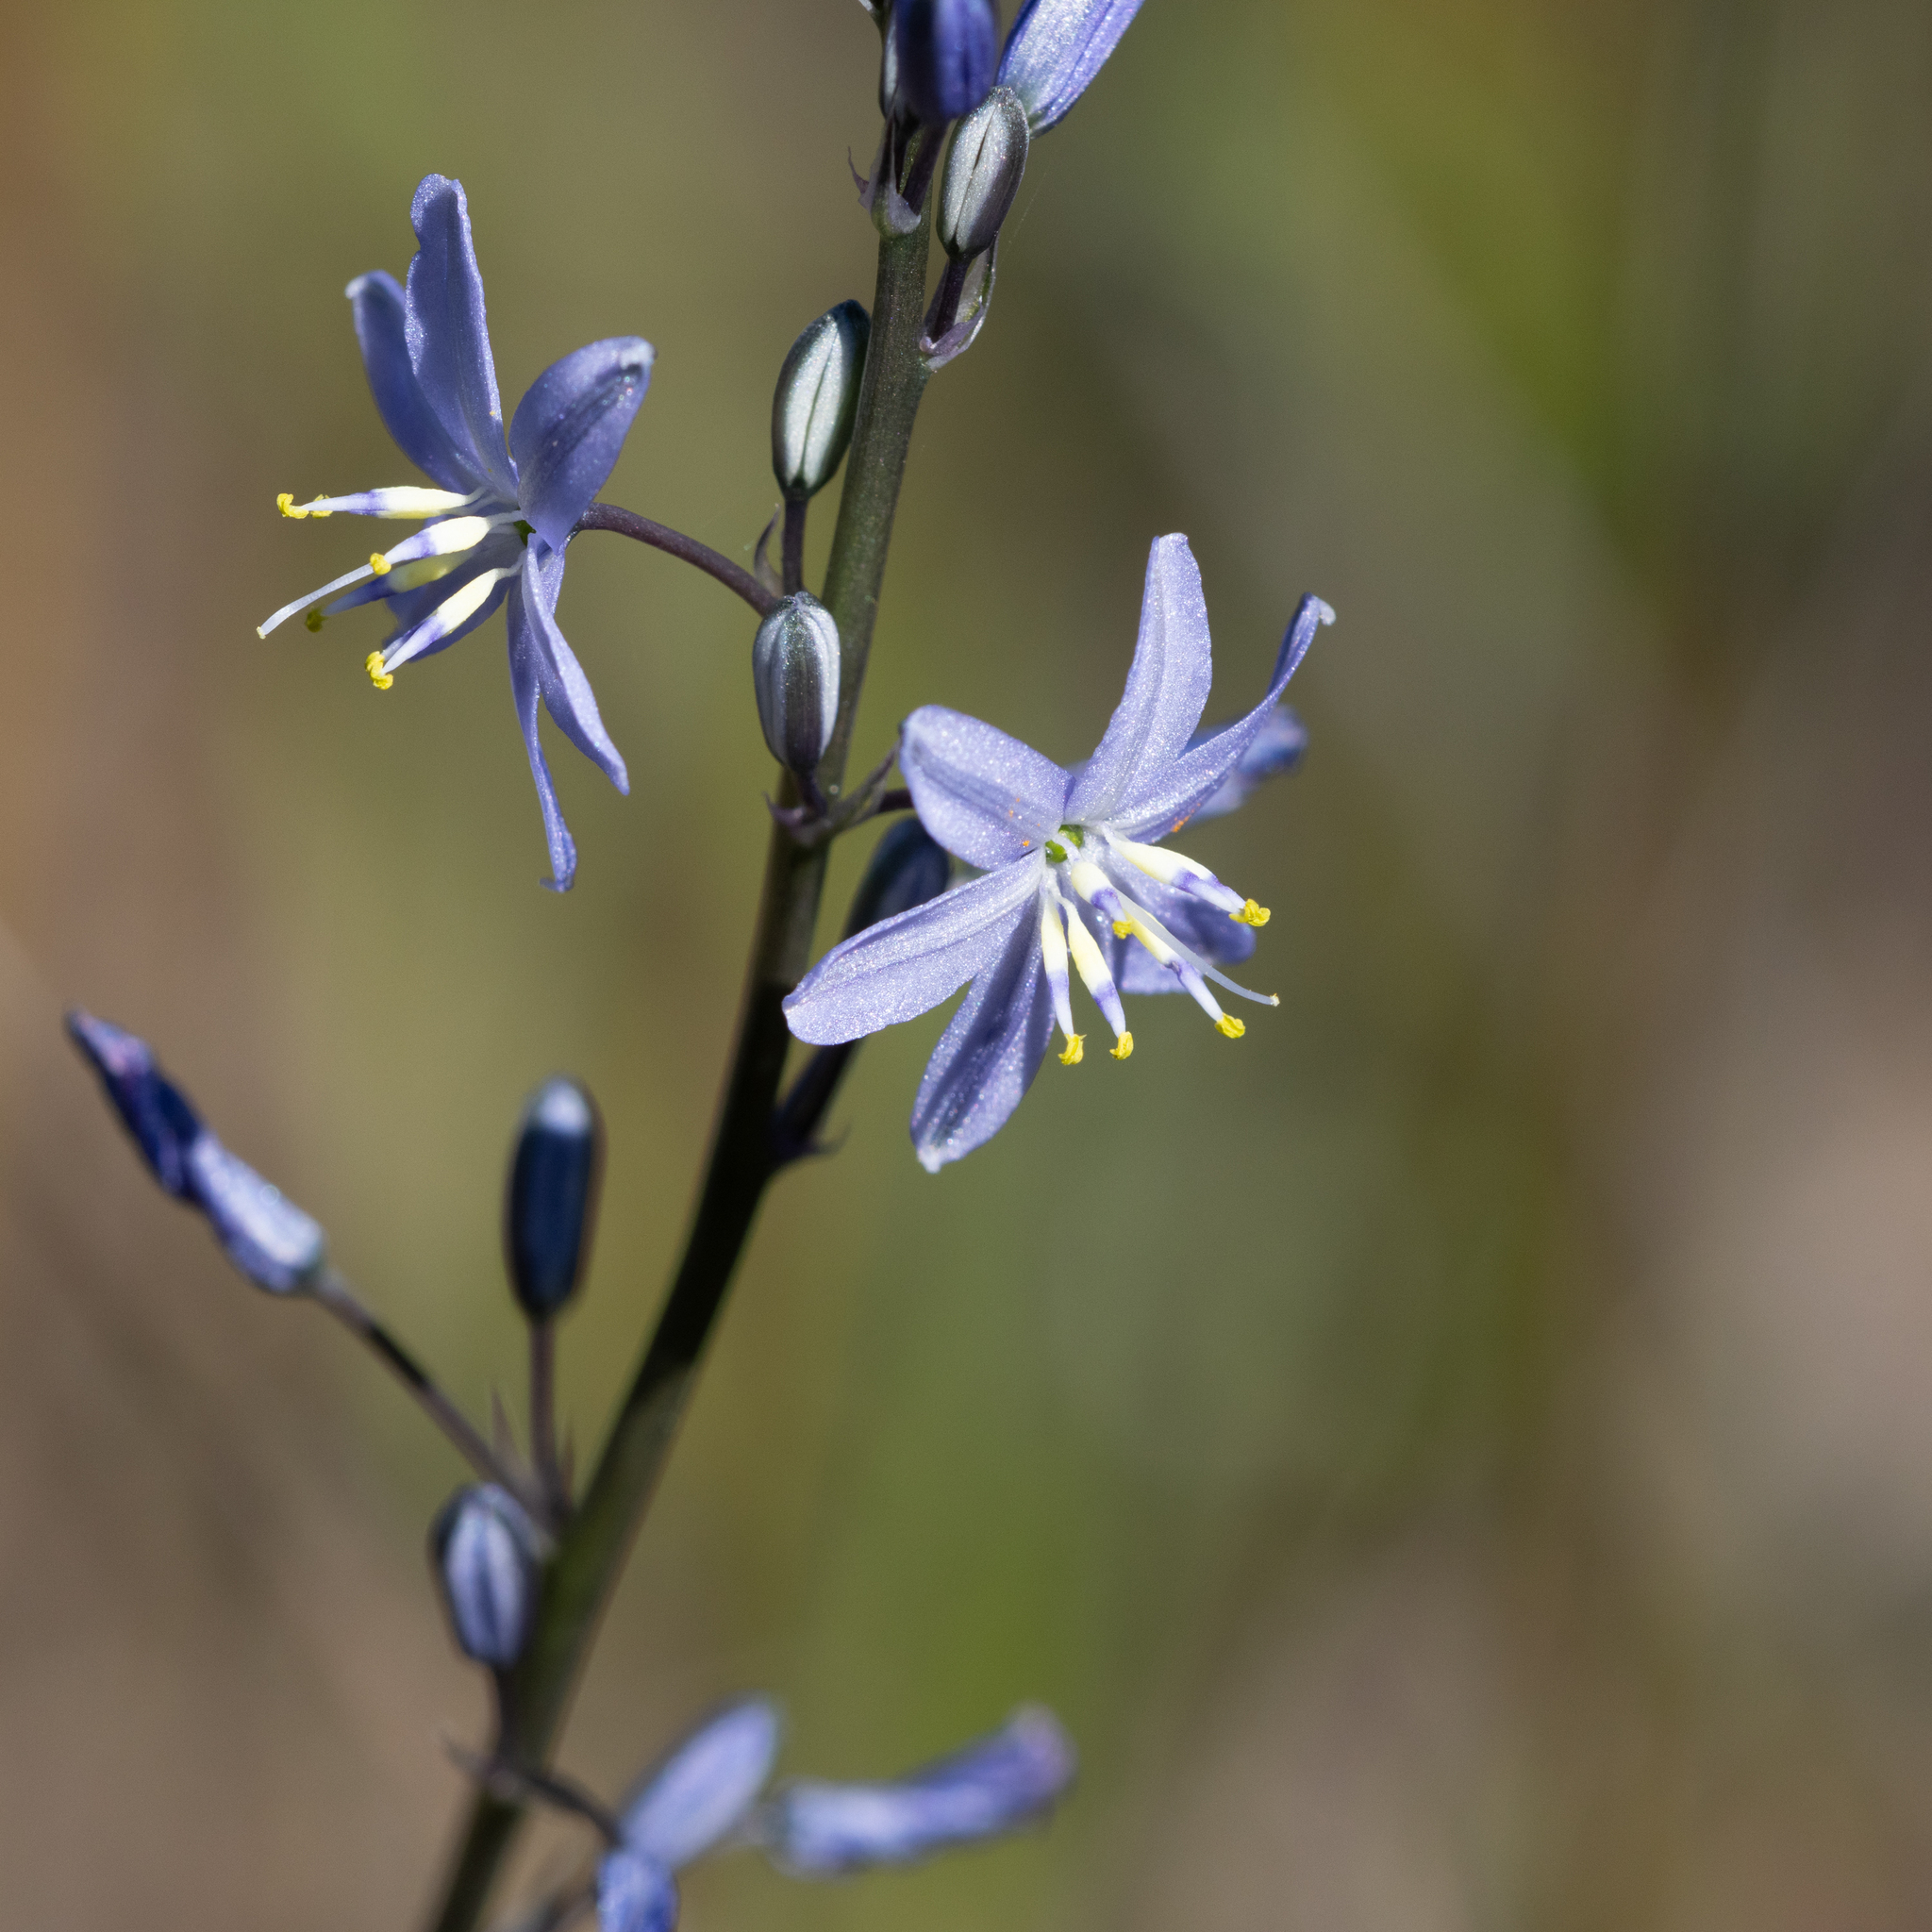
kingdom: Plantae
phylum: Tracheophyta
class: Liliopsida
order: Asparagales
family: Asphodelaceae
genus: Caesia
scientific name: Caesia calliantha
